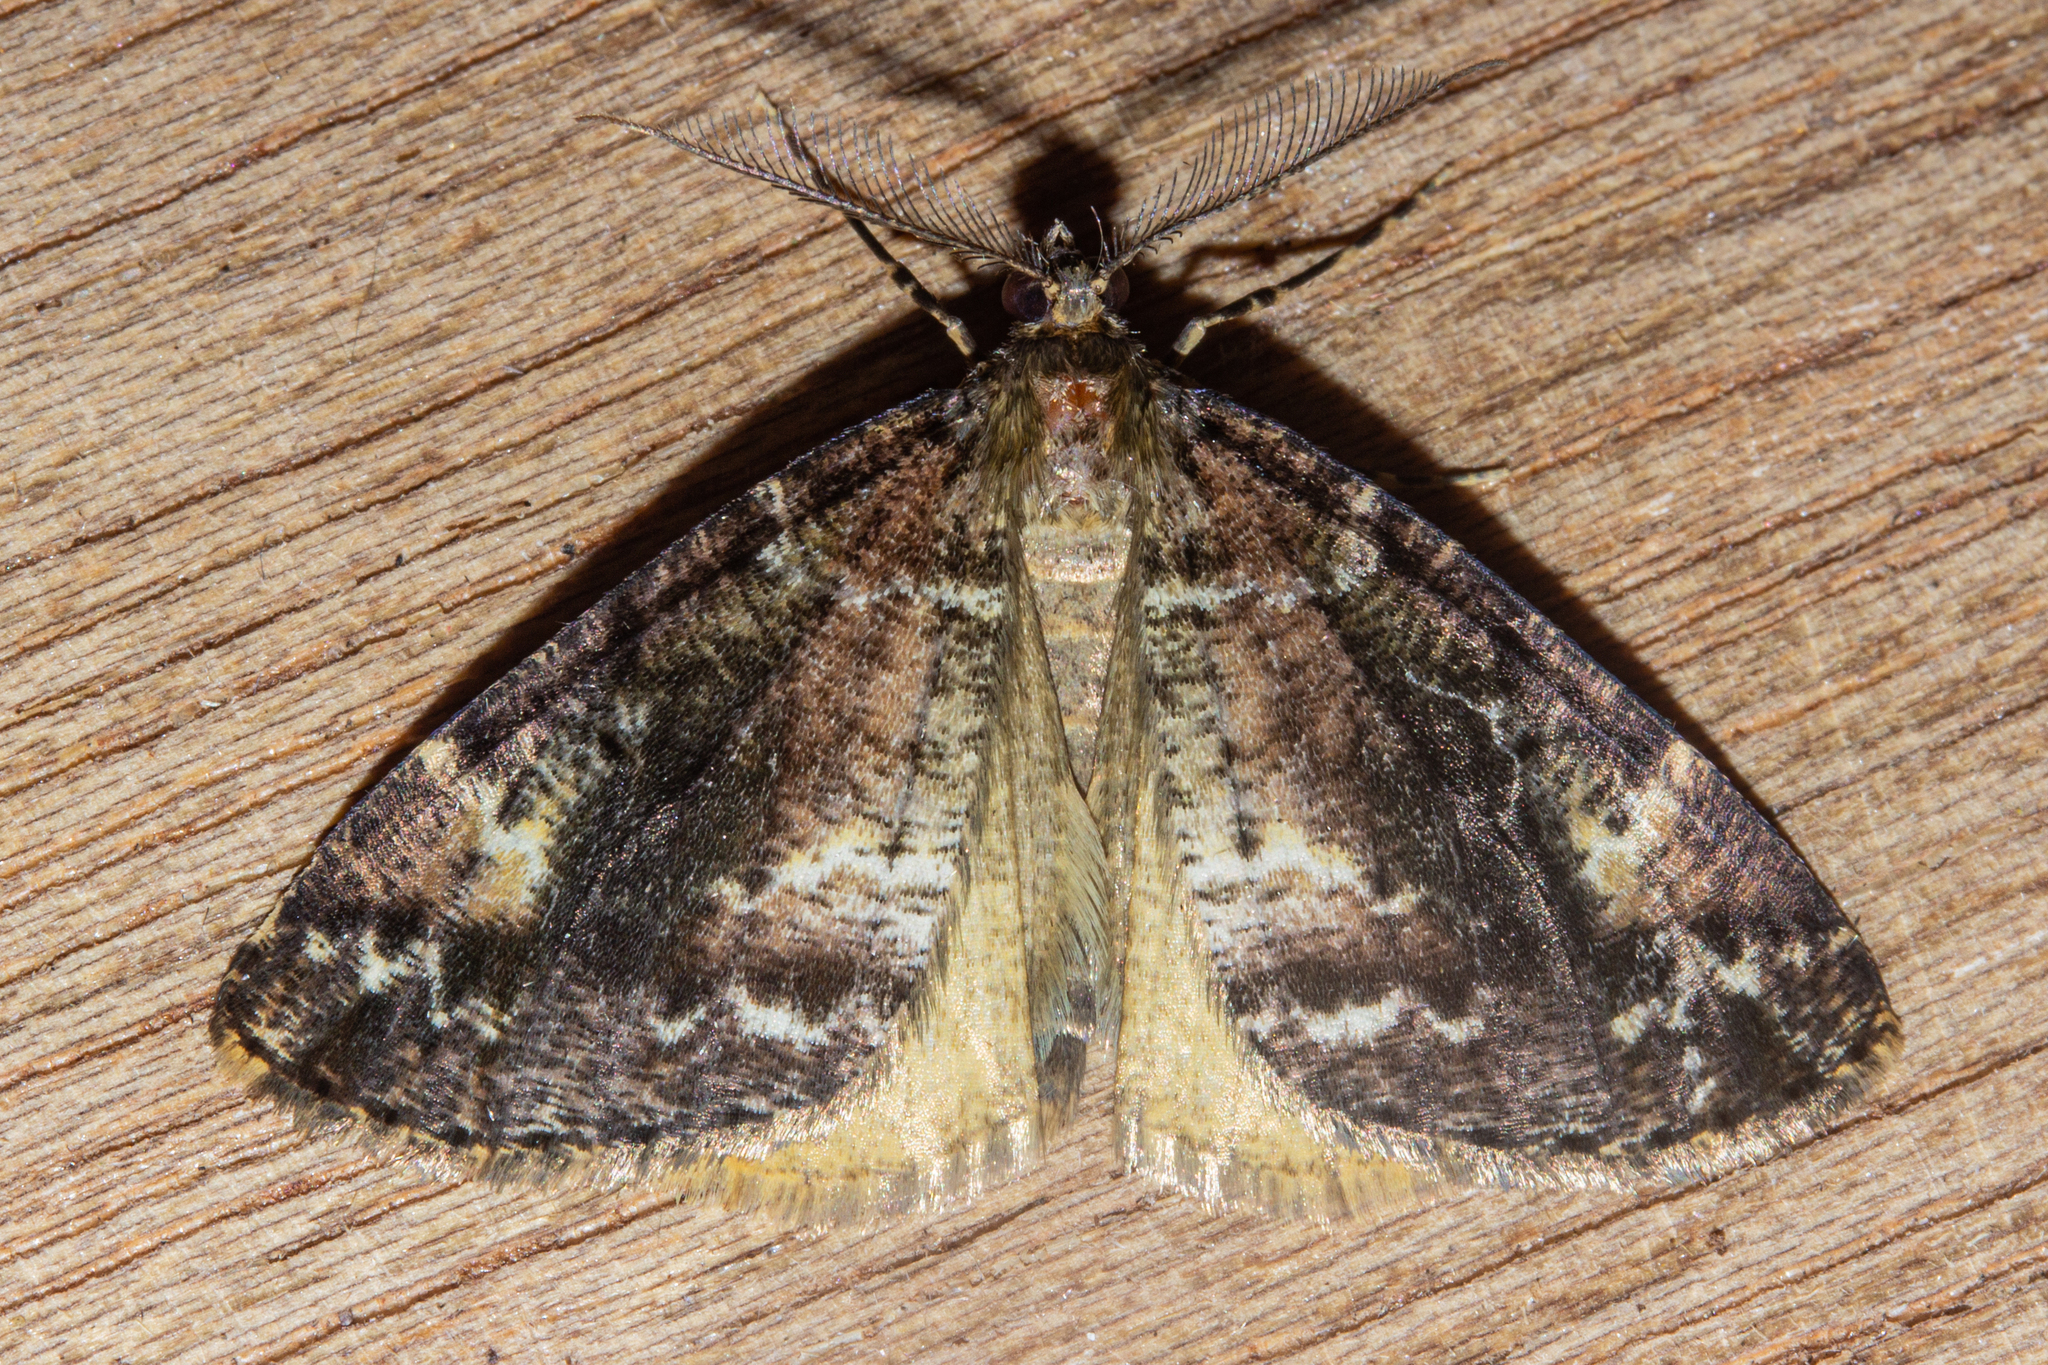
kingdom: Animalia
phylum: Arthropoda
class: Insecta
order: Lepidoptera
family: Geometridae
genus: Pseudocoremia
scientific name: Pseudocoremia productata
